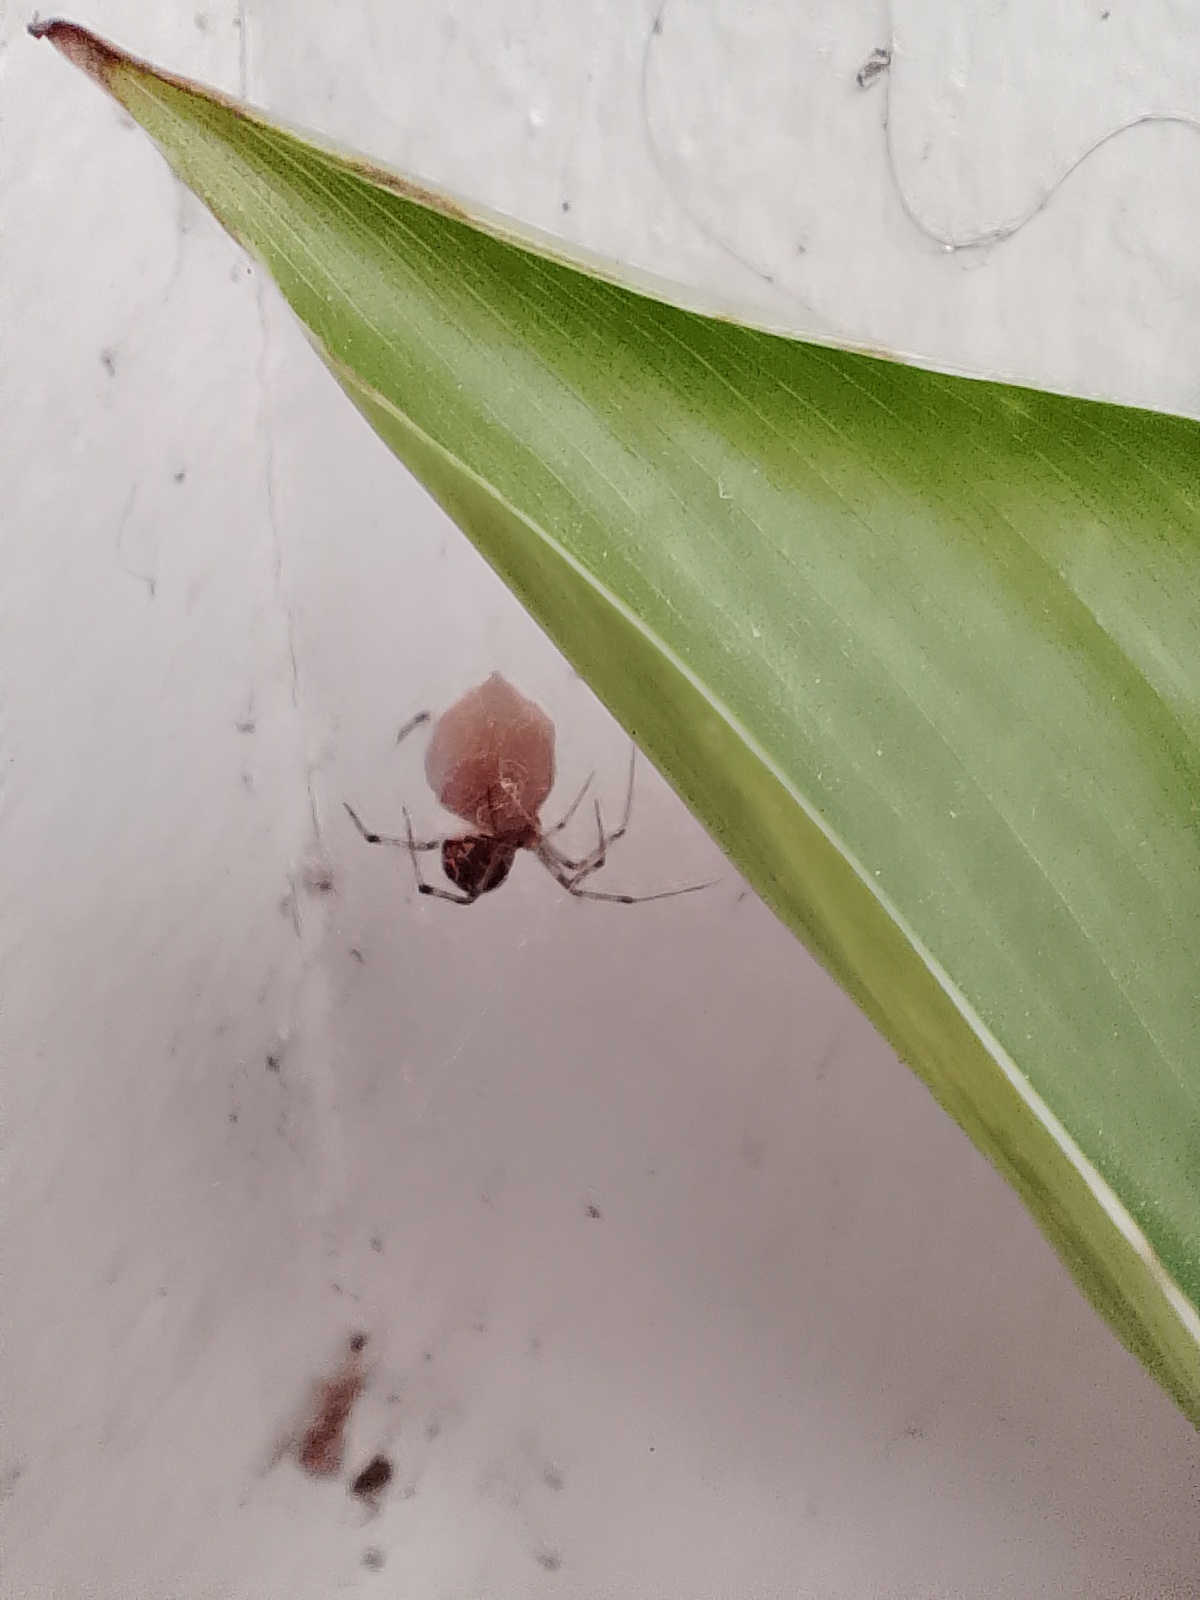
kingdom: Animalia
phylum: Arthropoda
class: Arachnida
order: Araneae
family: Theridiidae
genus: Parasteatoda
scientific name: Parasteatoda tepidariorum
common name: Common house spider
